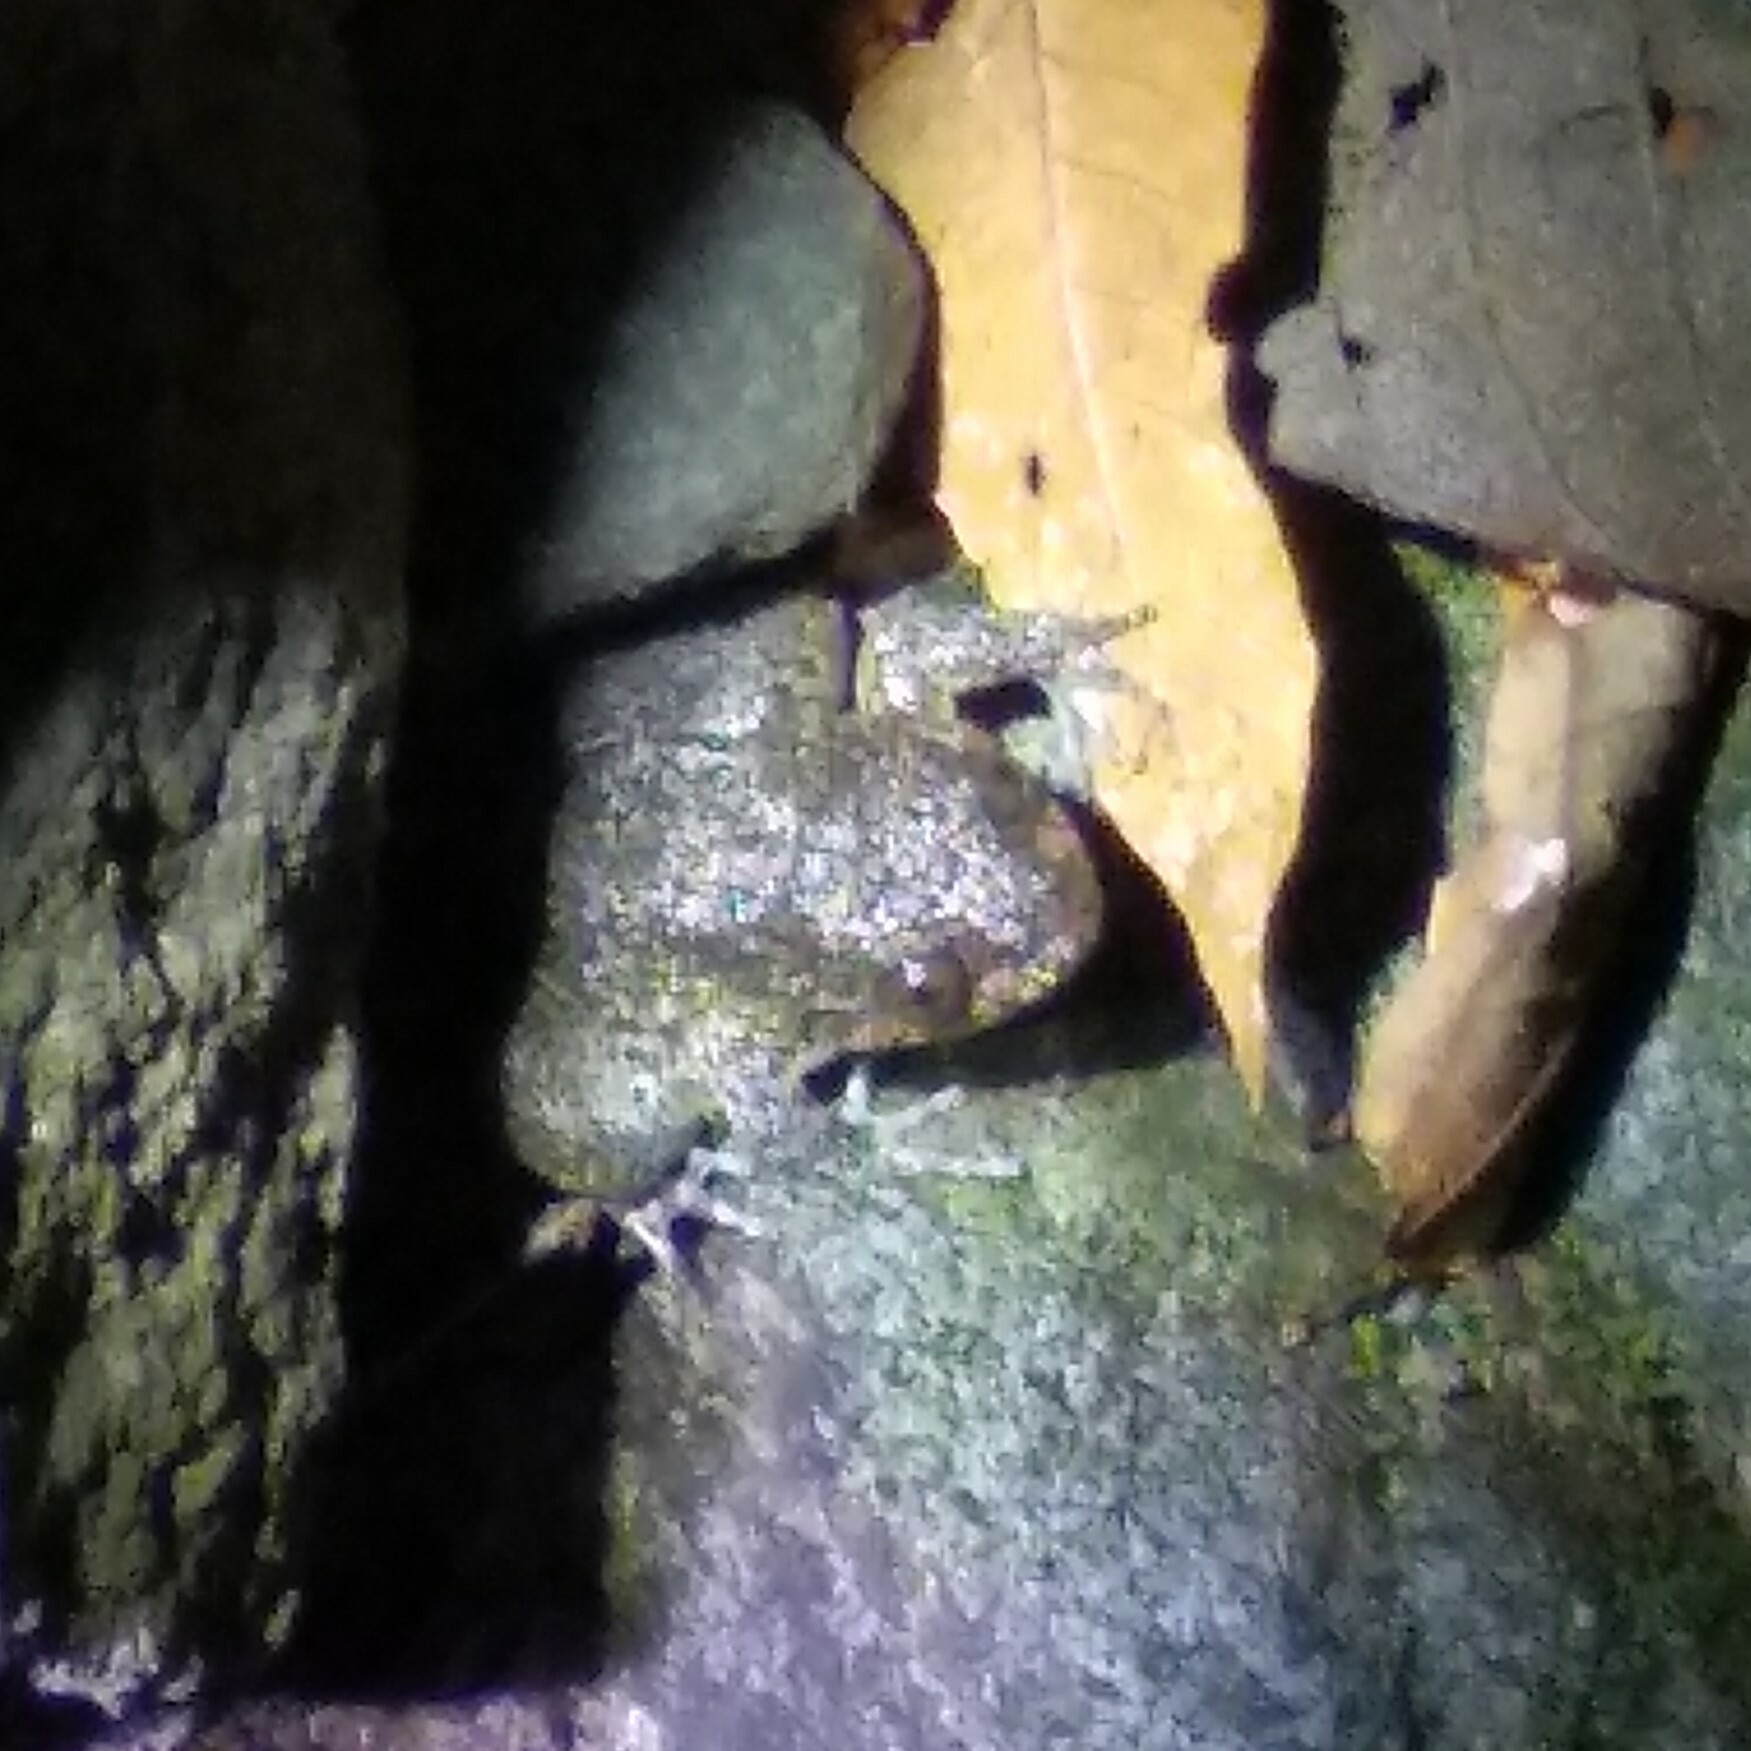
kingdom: Animalia
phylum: Chordata
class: Amphibia
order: Anura
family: Nyctibatrachidae
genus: Nyctibatrachus
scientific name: Nyctibatrachus grandis
